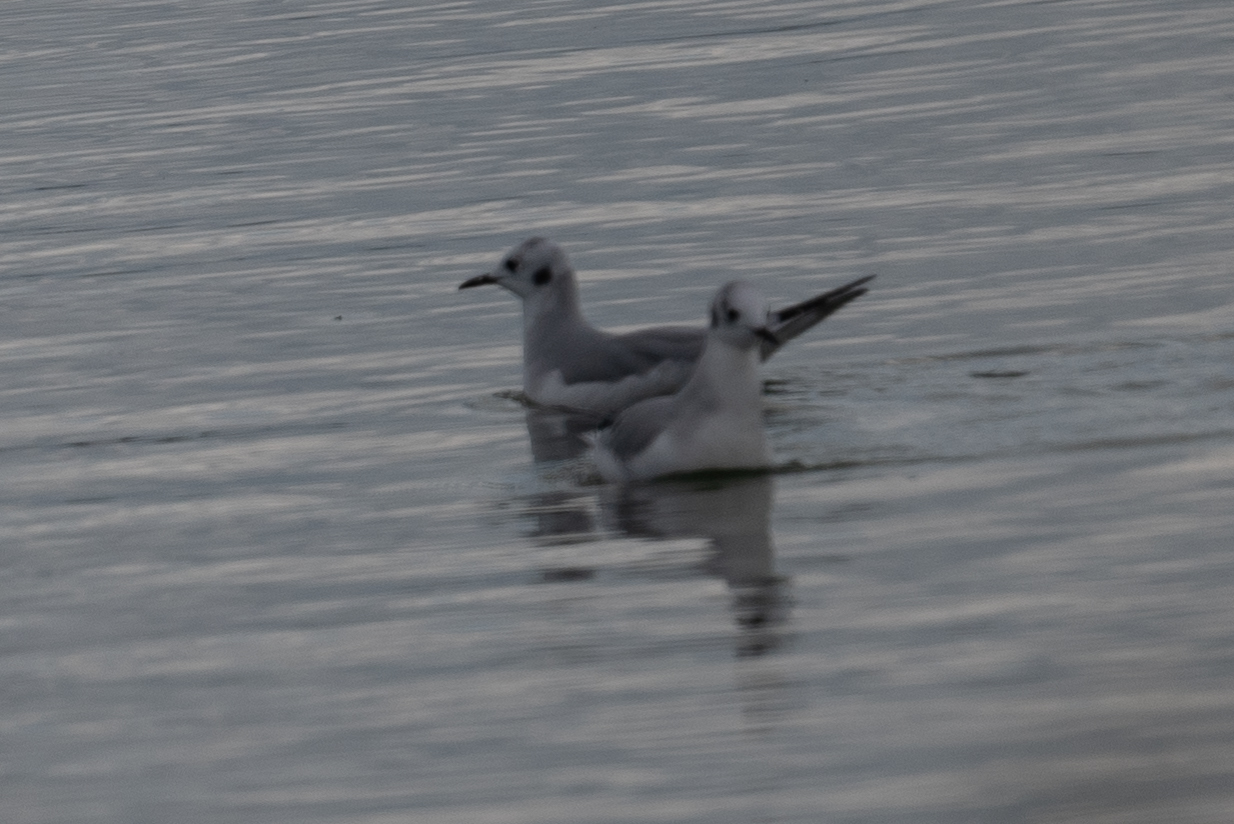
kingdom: Animalia
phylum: Chordata
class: Aves
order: Charadriiformes
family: Laridae
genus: Chroicocephalus
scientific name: Chroicocephalus philadelphia
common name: Bonaparte's gull
